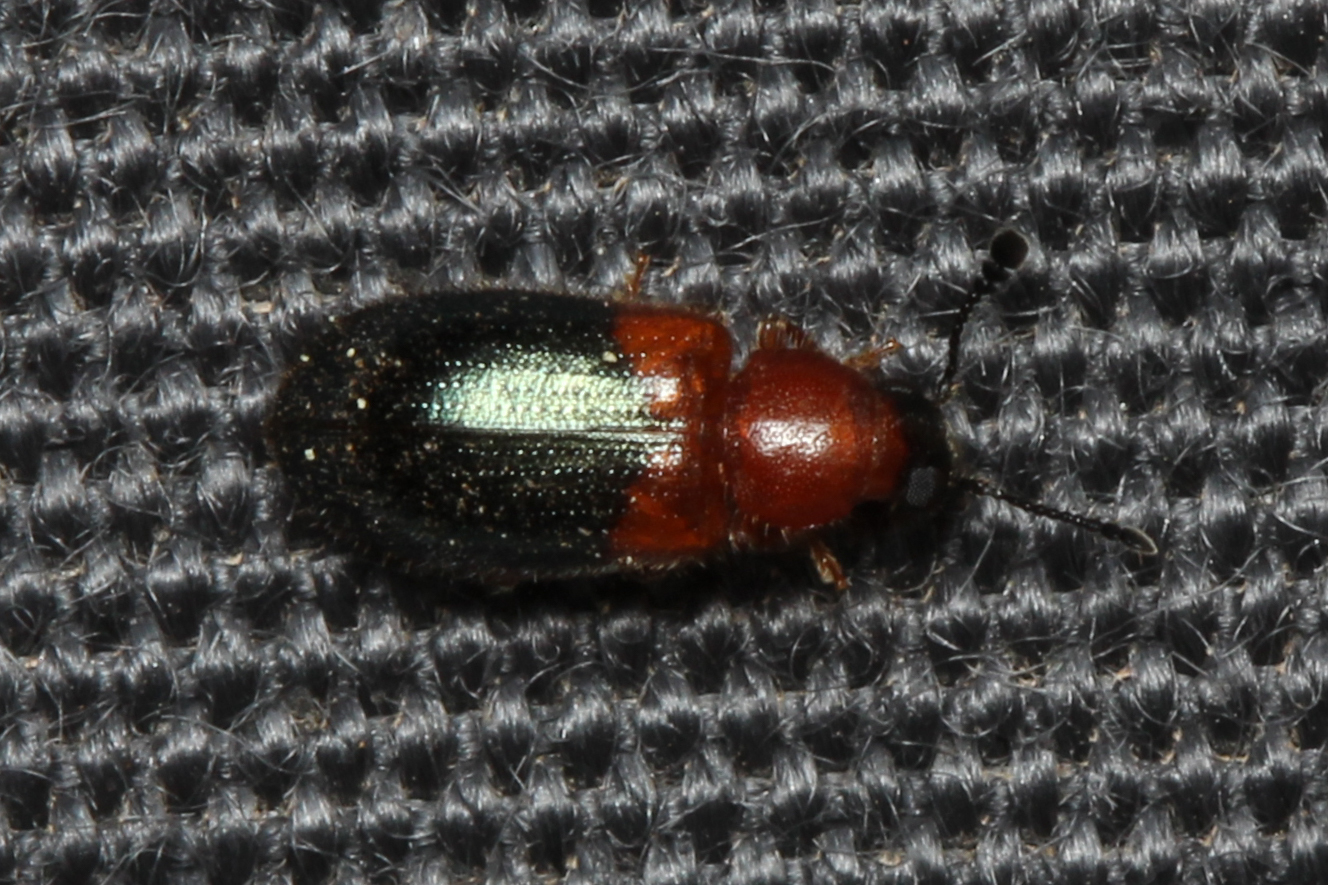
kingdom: Animalia
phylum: Arthropoda
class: Insecta
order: Coleoptera
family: Cleridae
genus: Necrobia
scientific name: Necrobia ruficollis
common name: Redshouldered ham beetle
